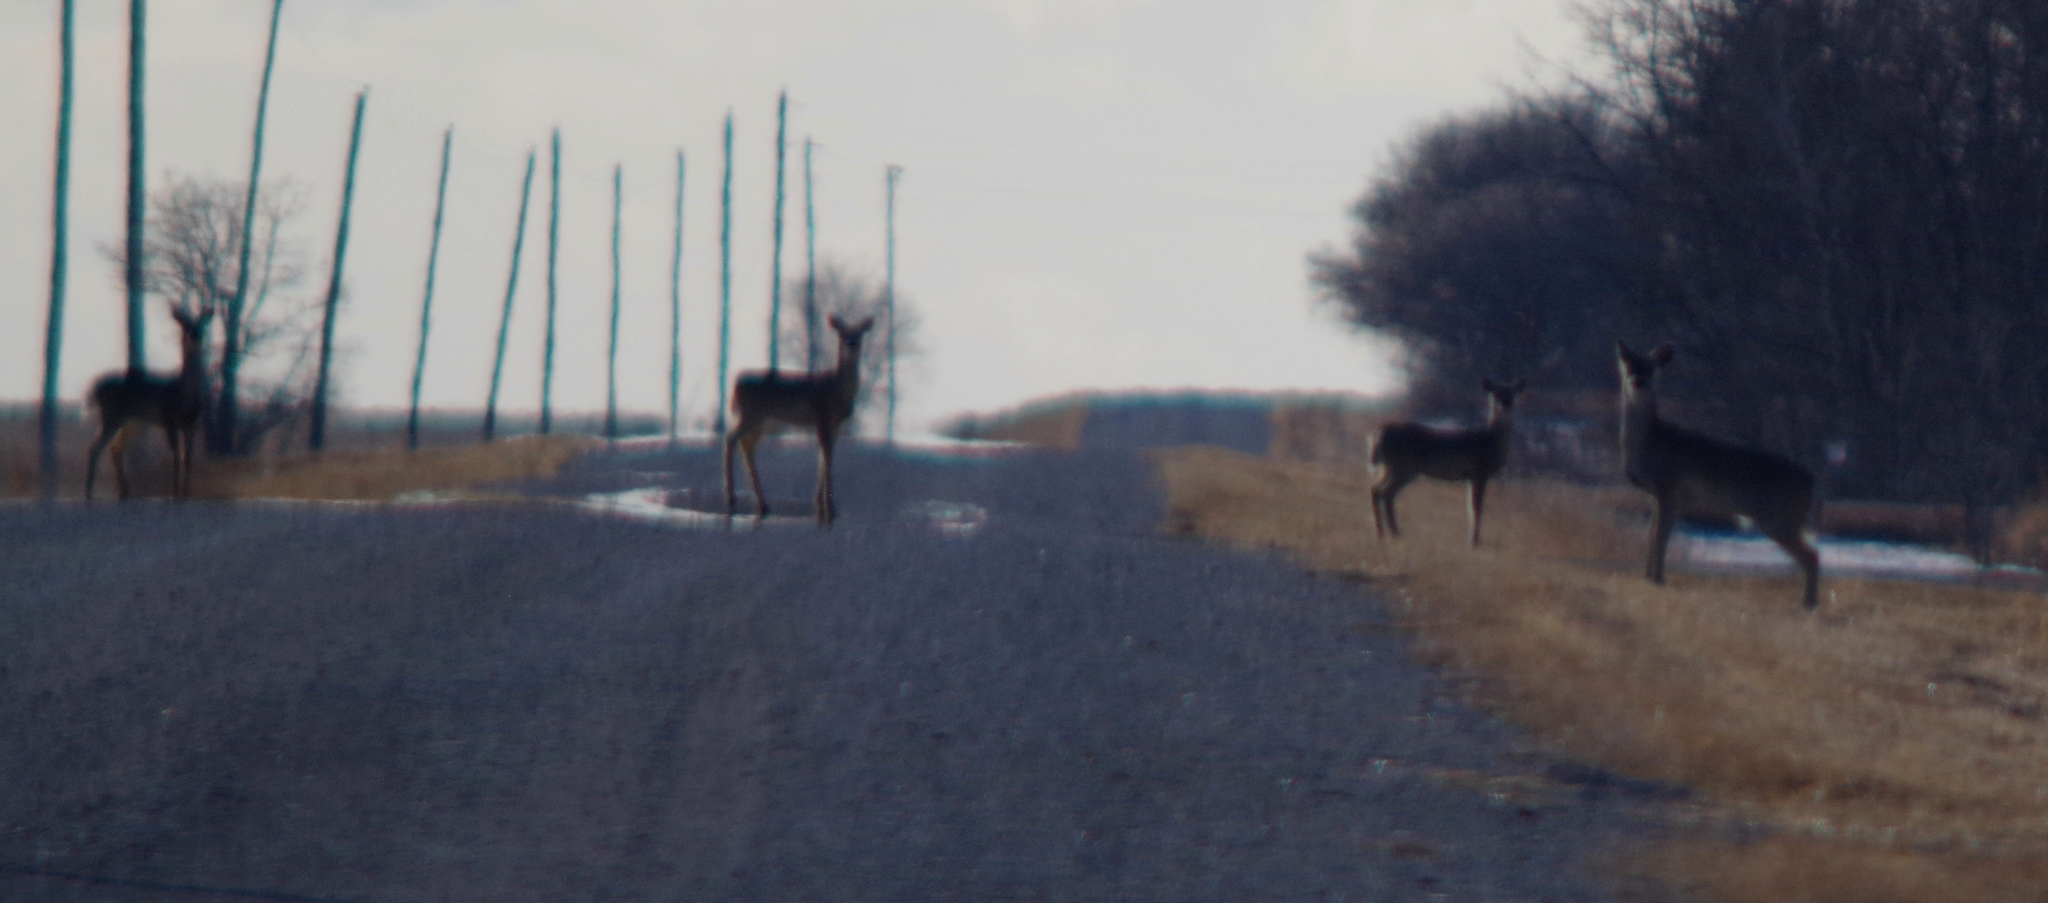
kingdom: Animalia
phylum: Chordata
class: Mammalia
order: Artiodactyla
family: Cervidae
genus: Odocoileus
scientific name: Odocoileus virginianus
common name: White-tailed deer
